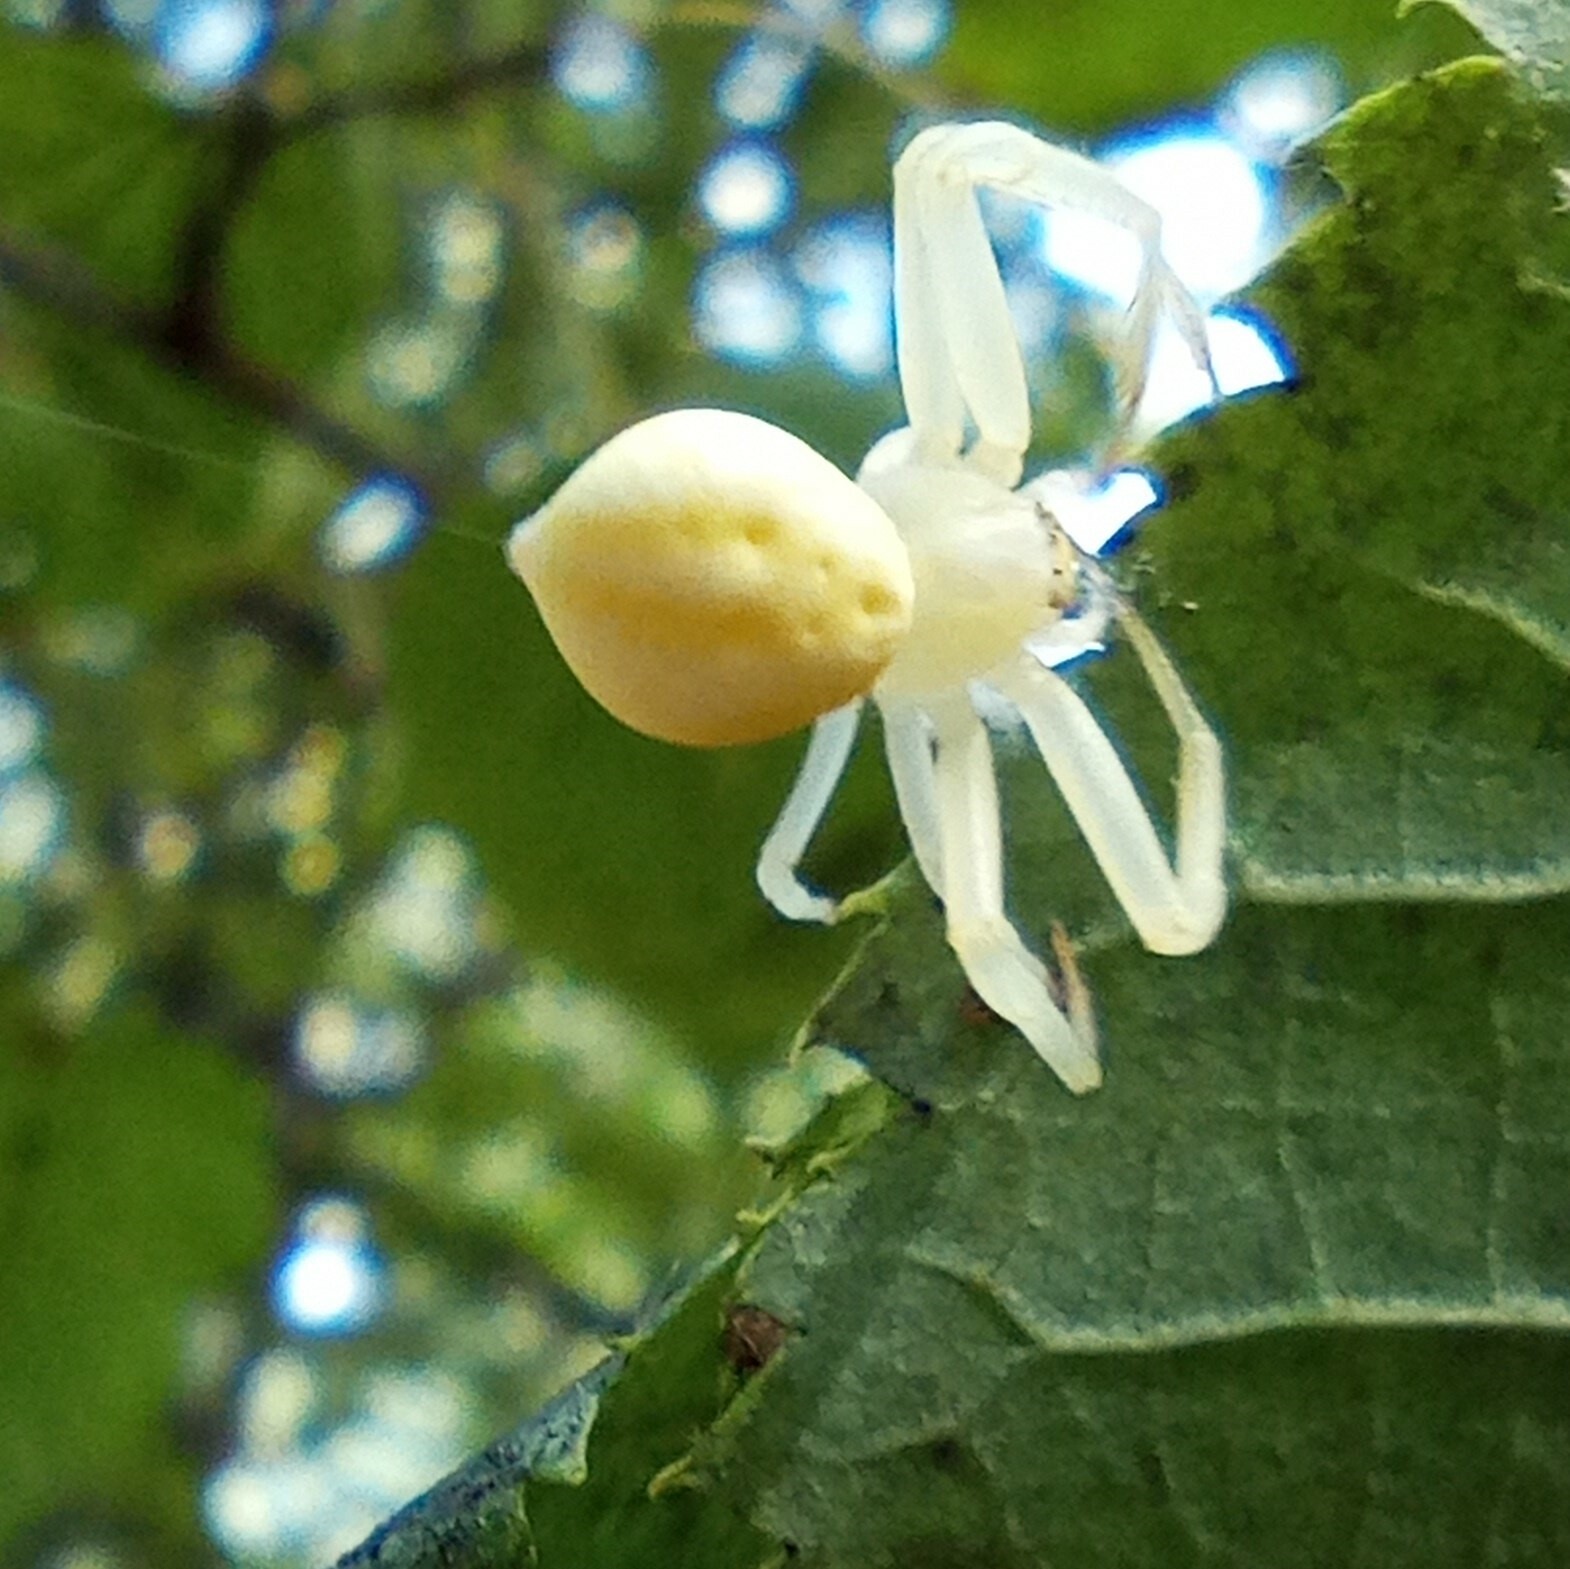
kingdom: Animalia
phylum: Arthropoda
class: Arachnida
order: Araneae
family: Thomisidae
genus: Misumena
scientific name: Misumena vatia
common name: Goldenrod crab spider
